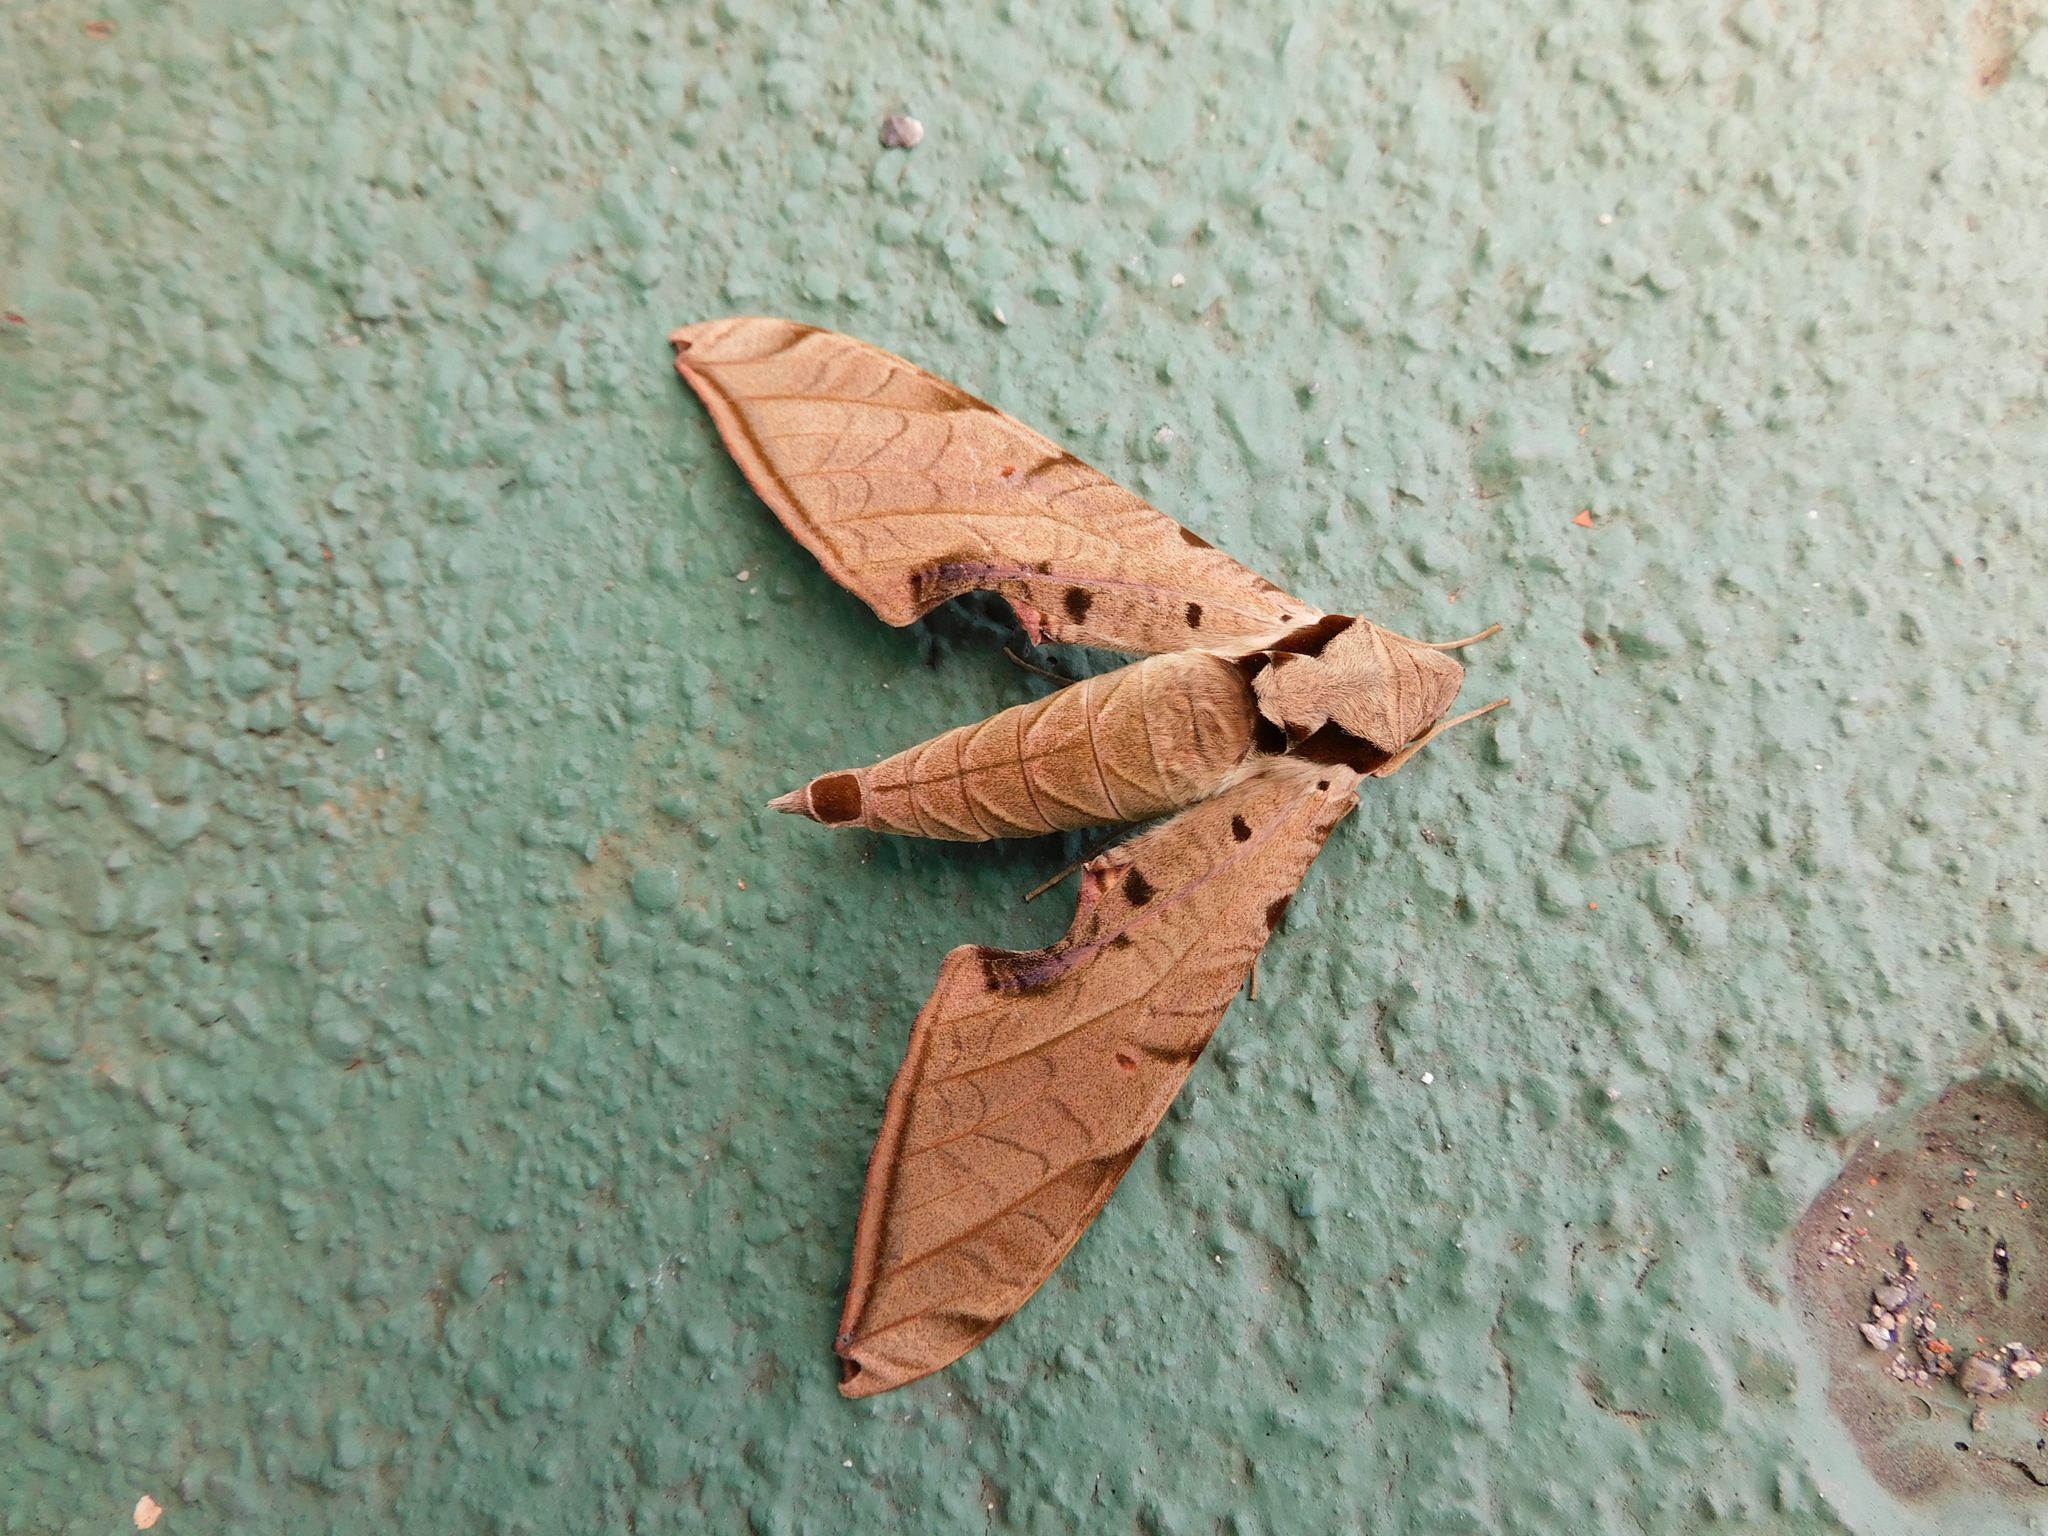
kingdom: Animalia
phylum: Arthropoda
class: Insecta
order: Lepidoptera
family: Sphingidae
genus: Protambulyx
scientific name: Protambulyx strigilis
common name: Streaked sphinx
